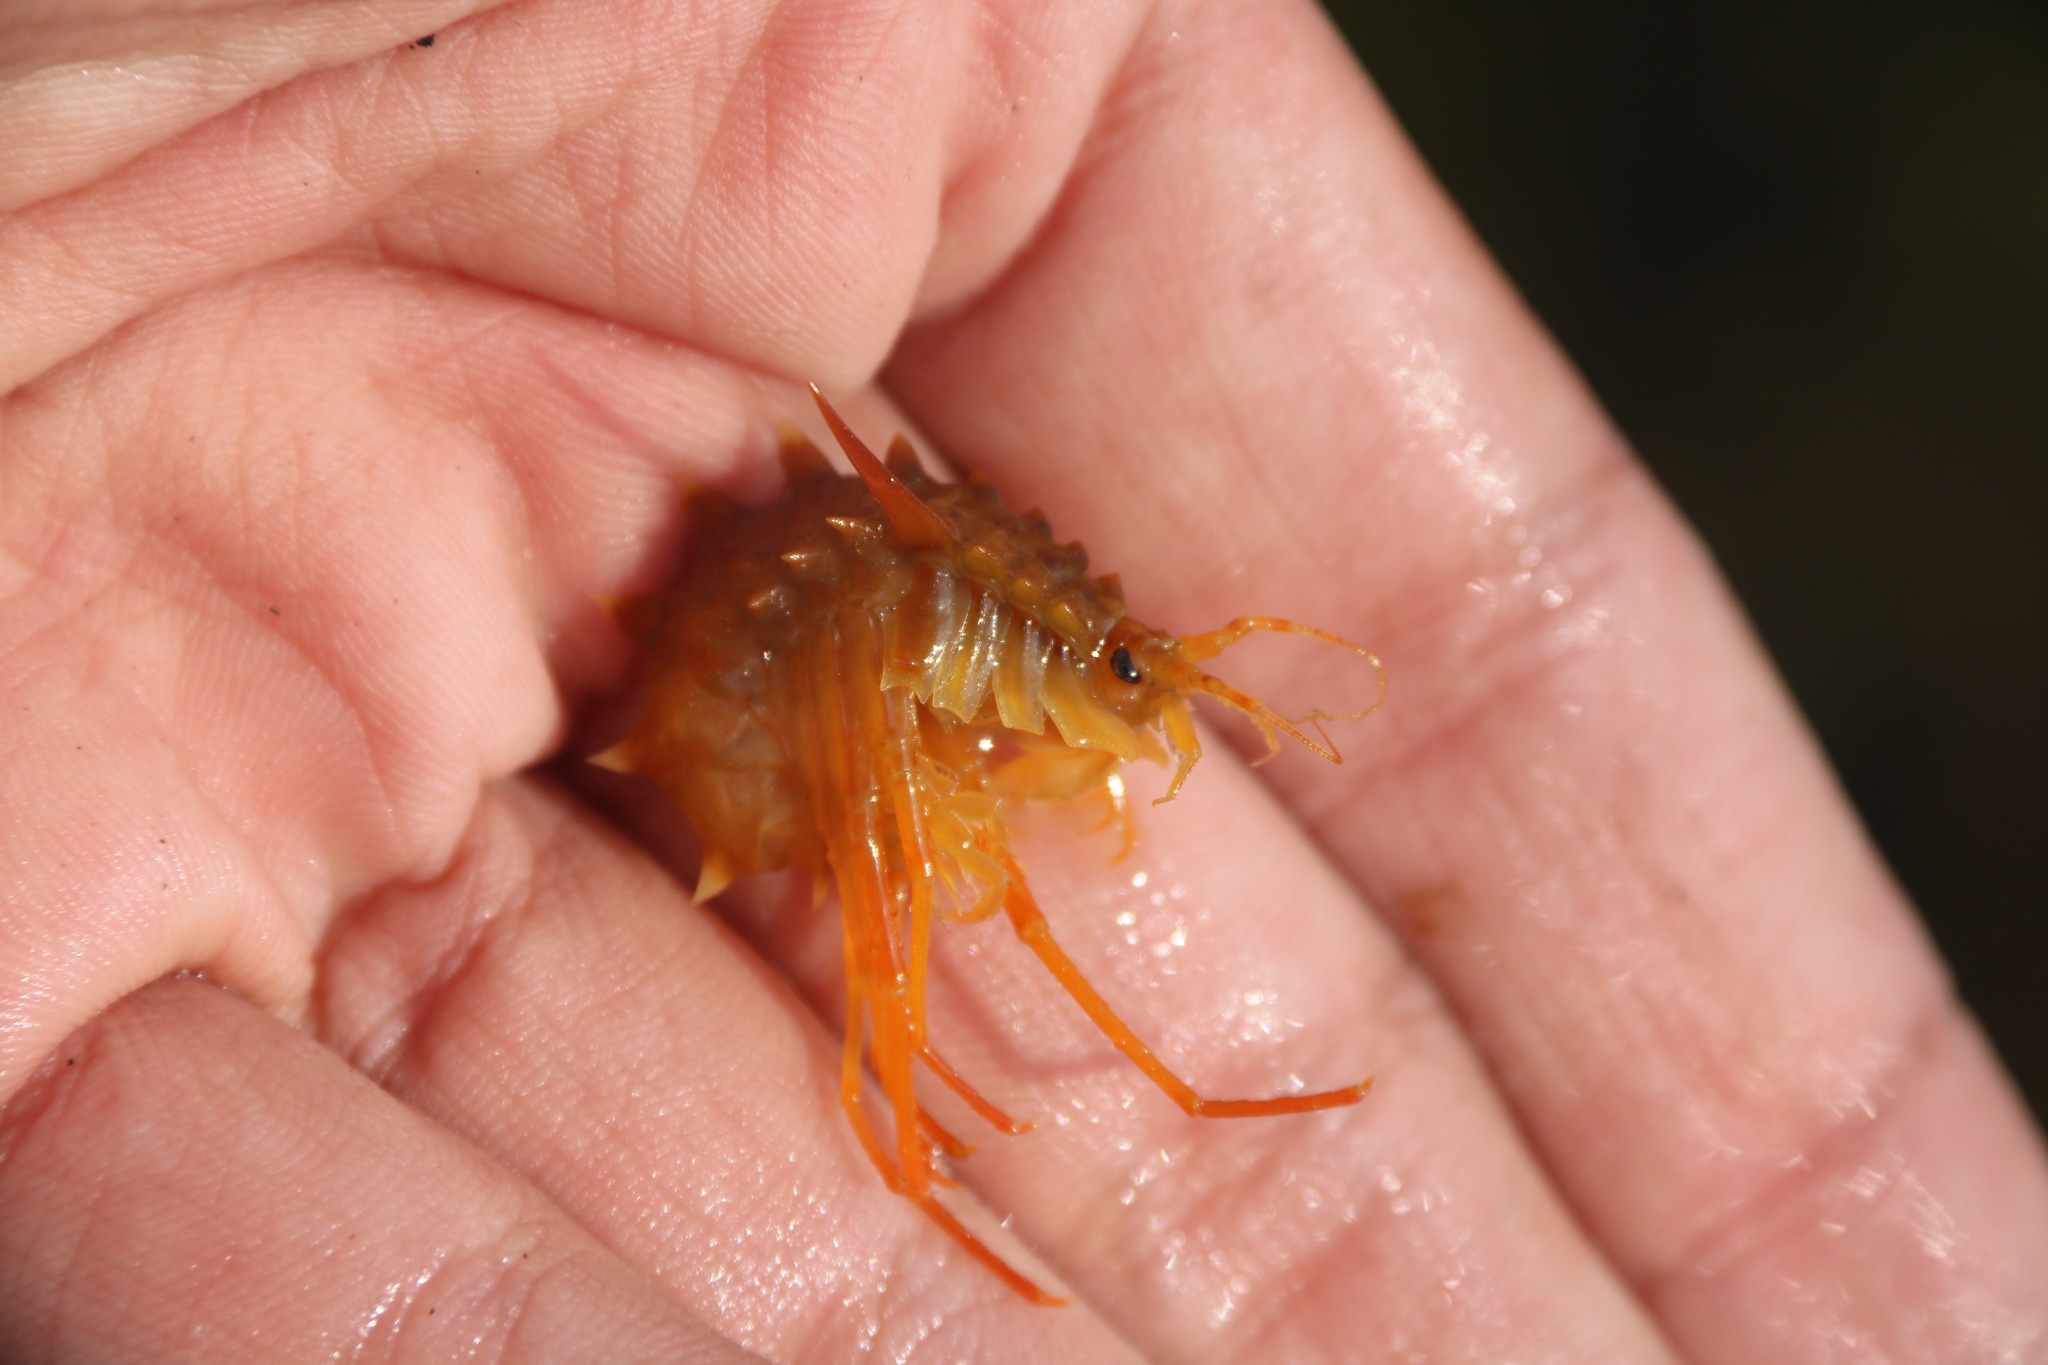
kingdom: Animalia
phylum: Arthropoda
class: Malacostraca
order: Amphipoda
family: Acanthogammaridae
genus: Acanthogammarus
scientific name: Acanthogammarus victorii
